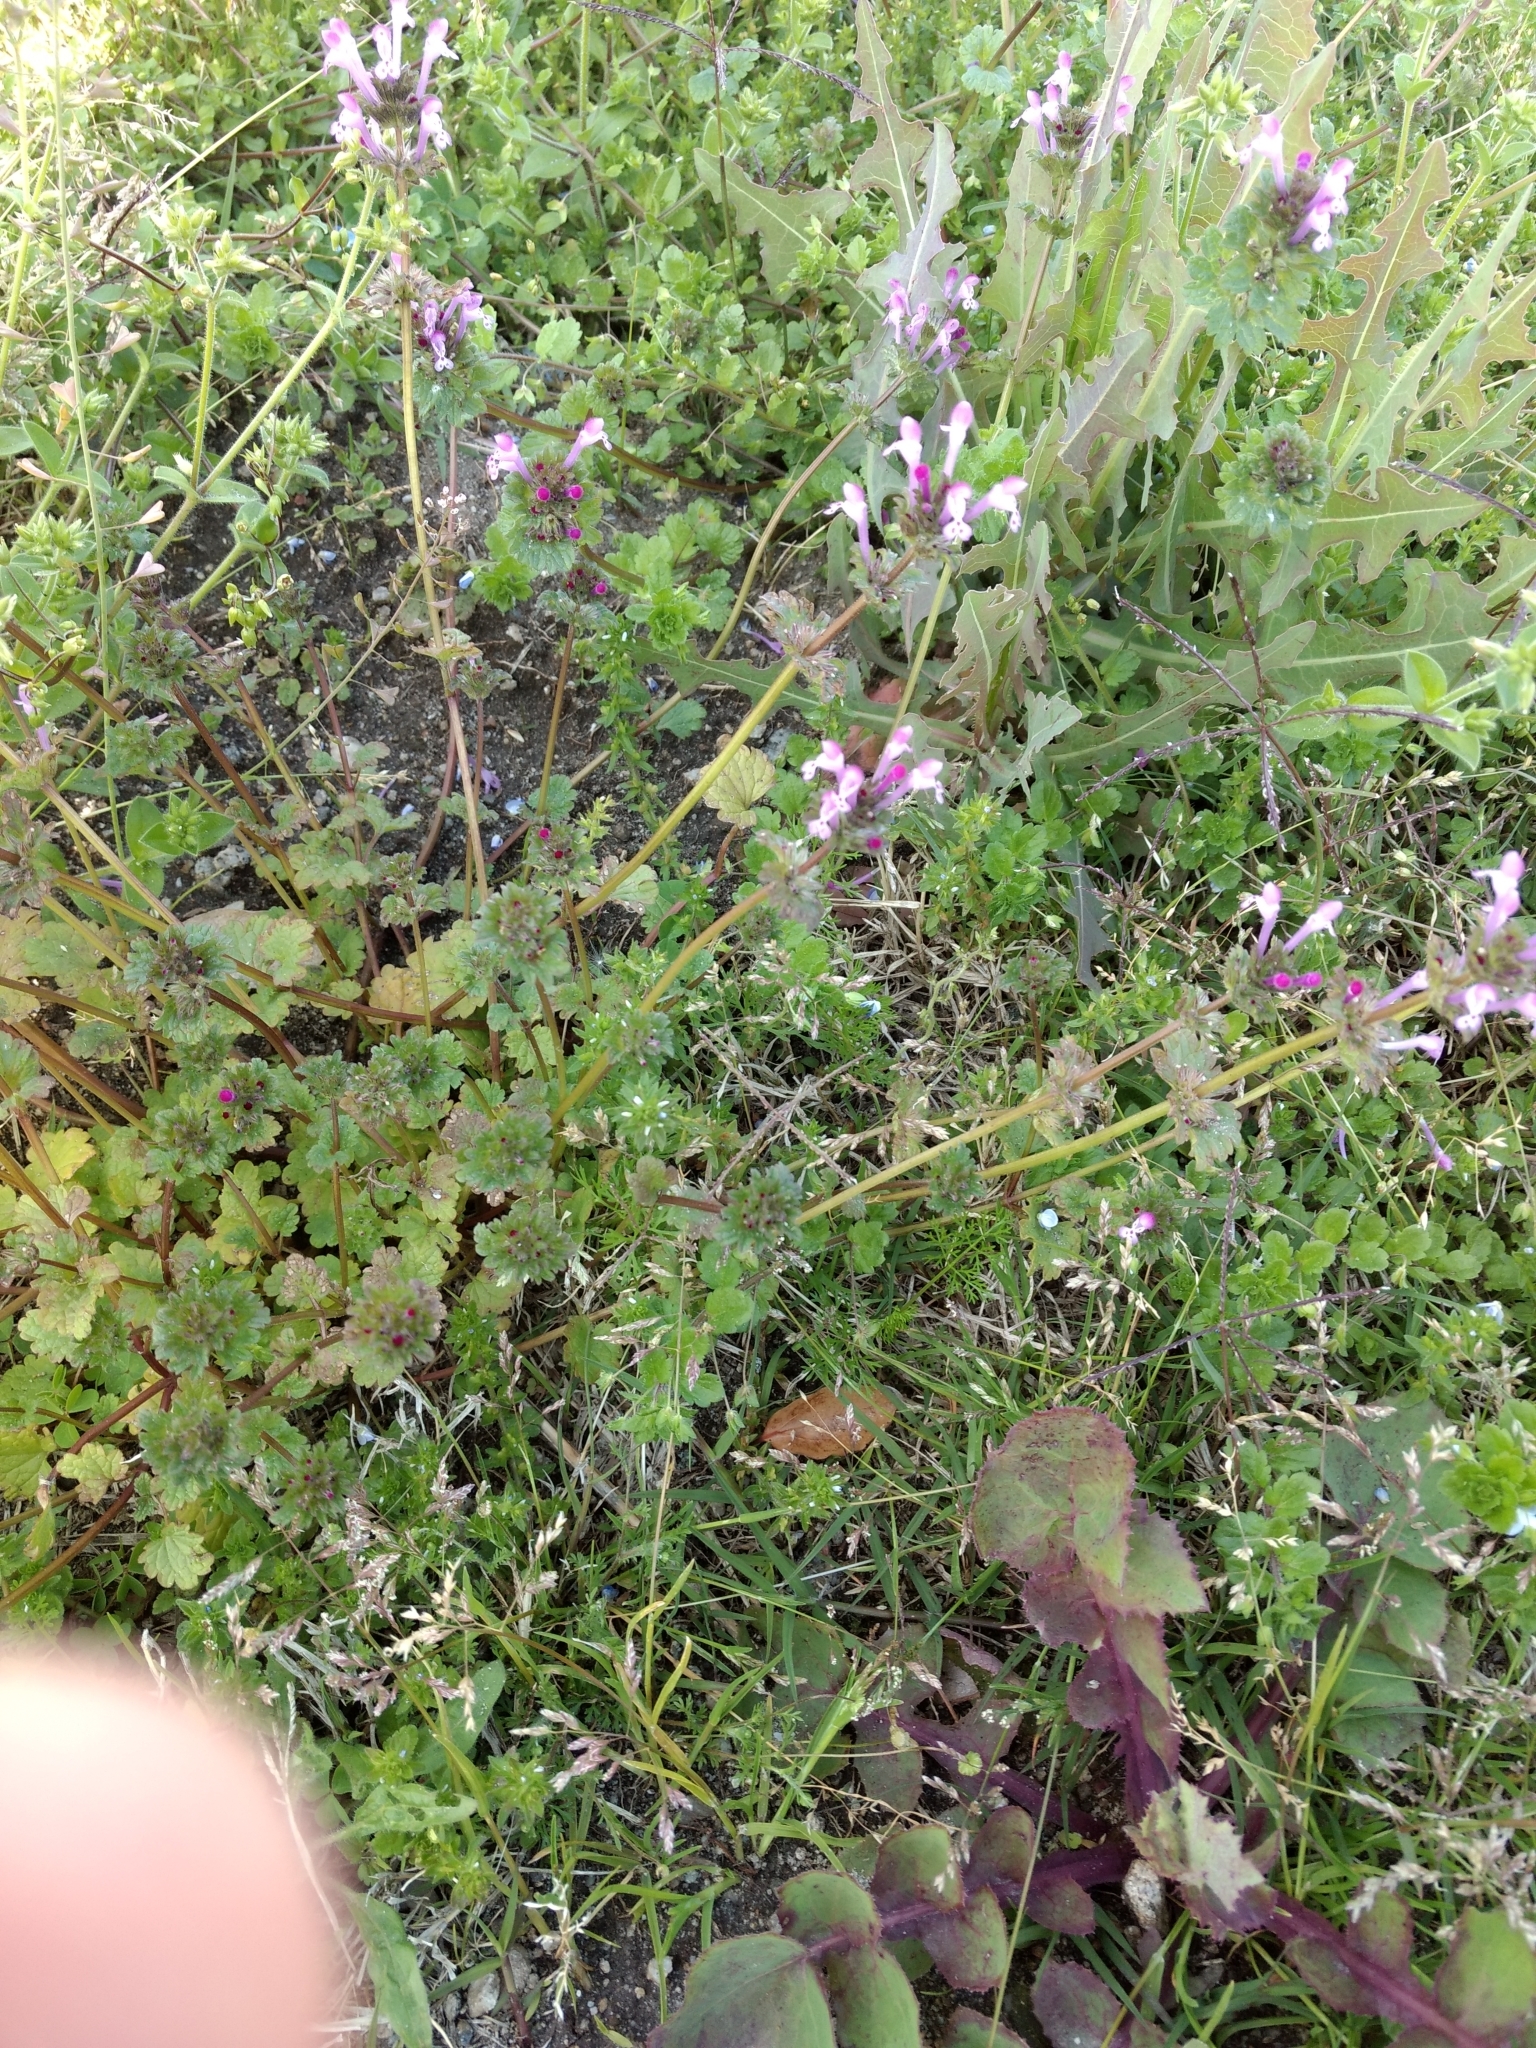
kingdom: Plantae
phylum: Tracheophyta
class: Magnoliopsida
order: Lamiales
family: Lamiaceae
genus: Lamium
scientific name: Lamium amplexicaule
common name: Henbit dead-nettle
